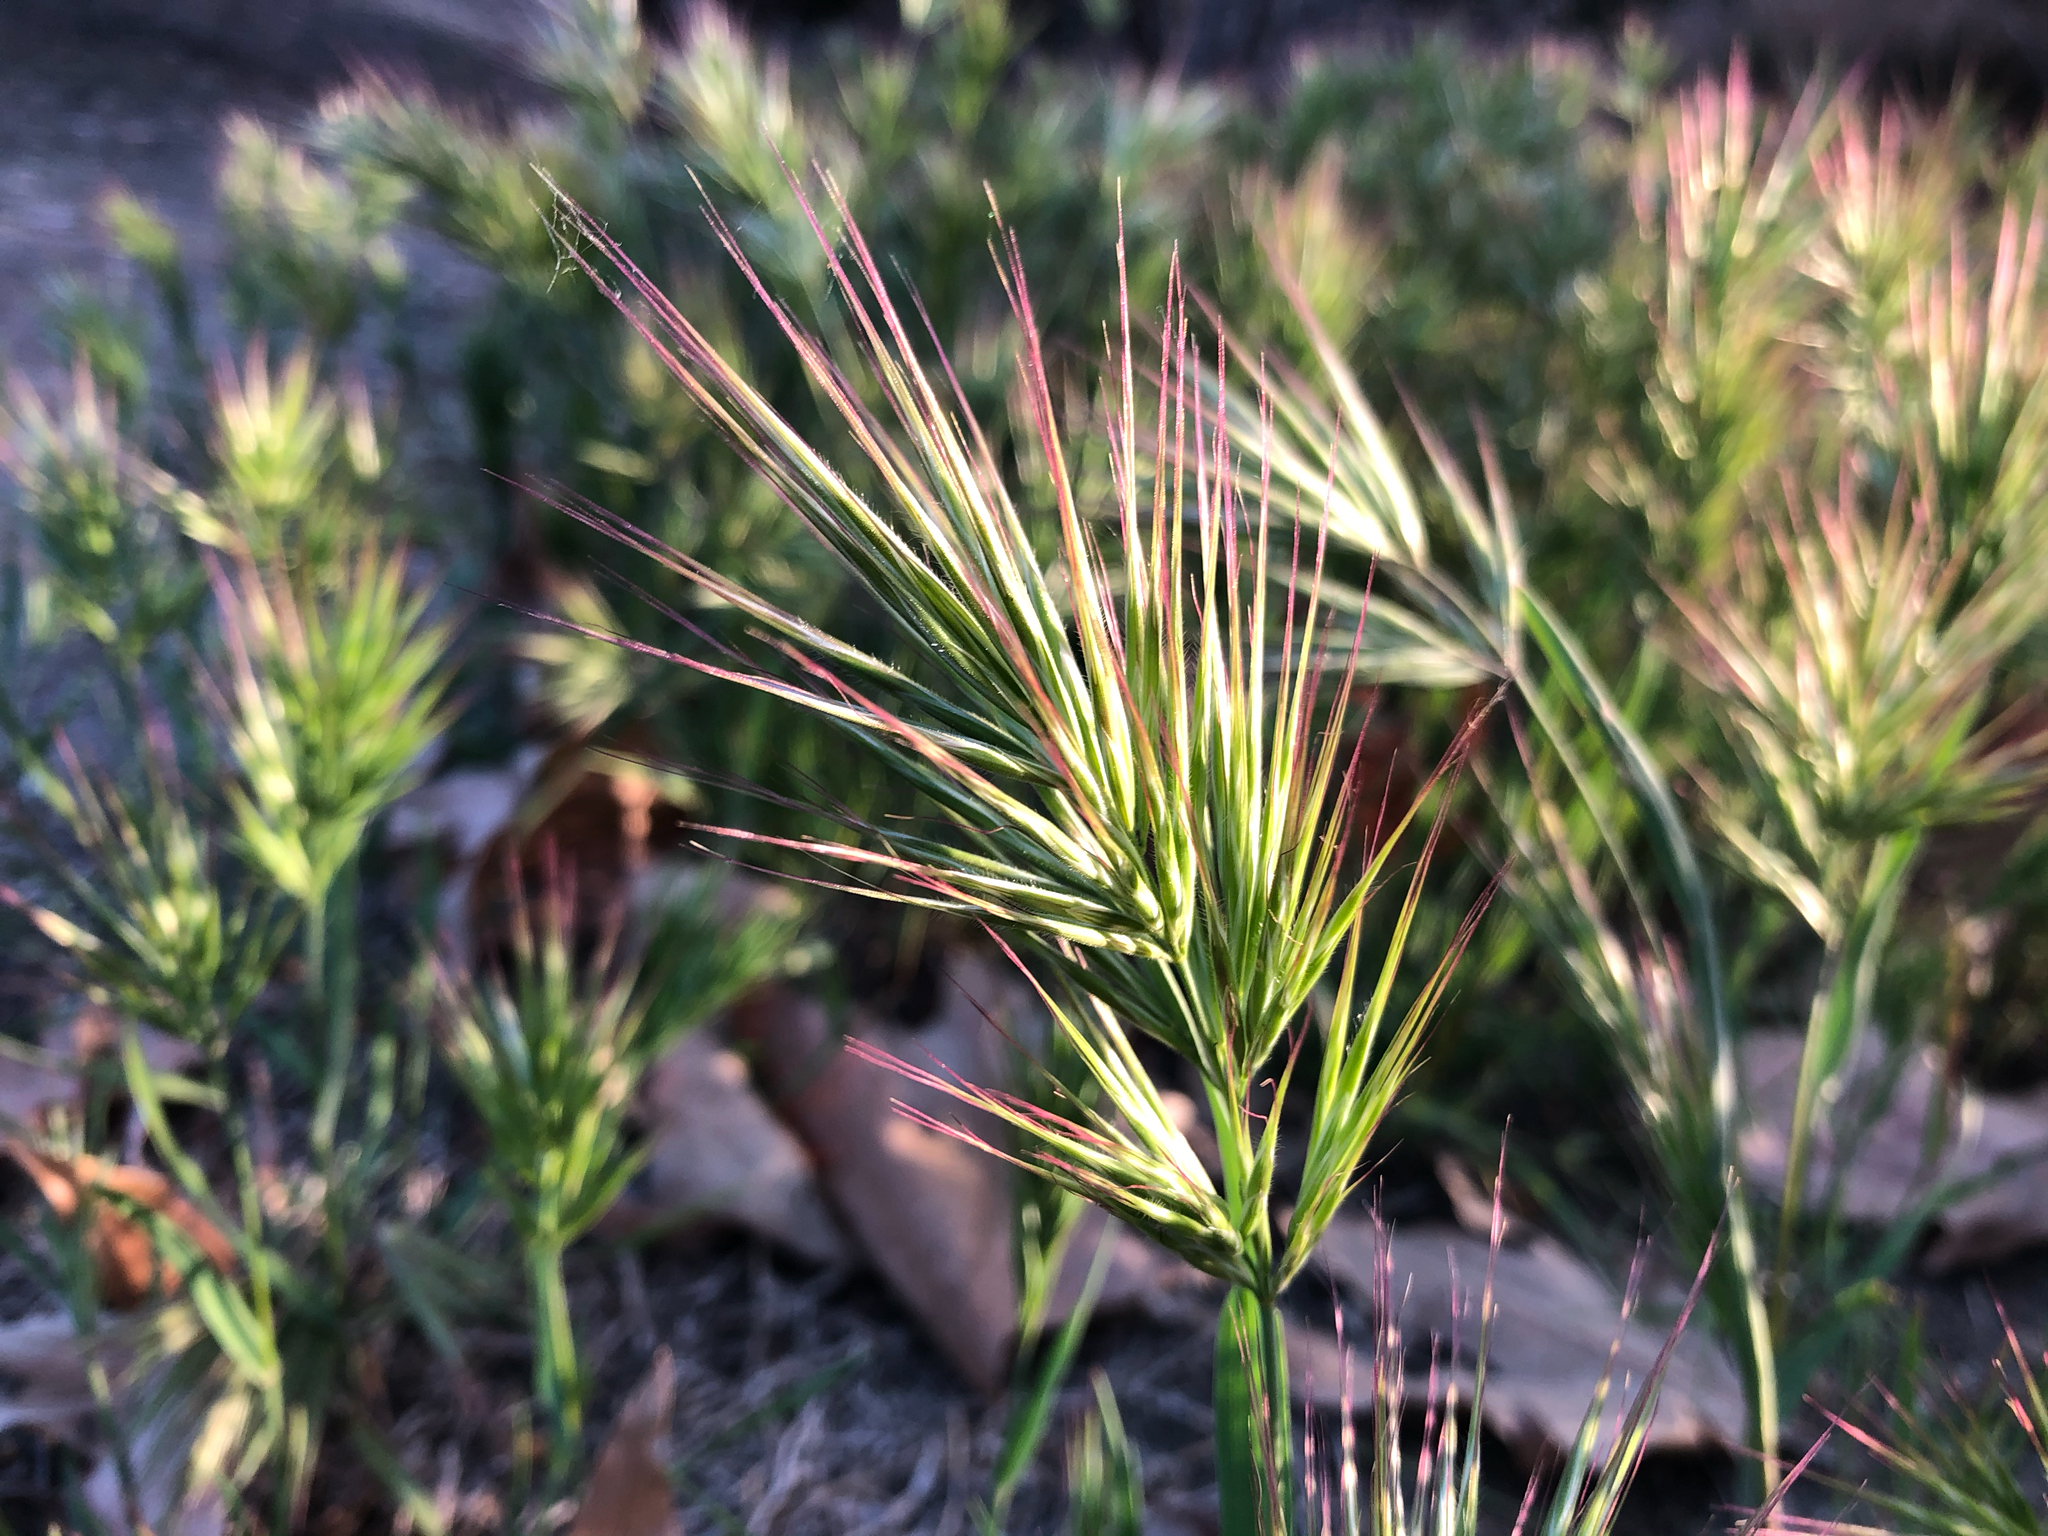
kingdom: Plantae
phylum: Tracheophyta
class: Liliopsida
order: Poales
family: Poaceae
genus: Bromus
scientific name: Bromus rubens
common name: Red brome
